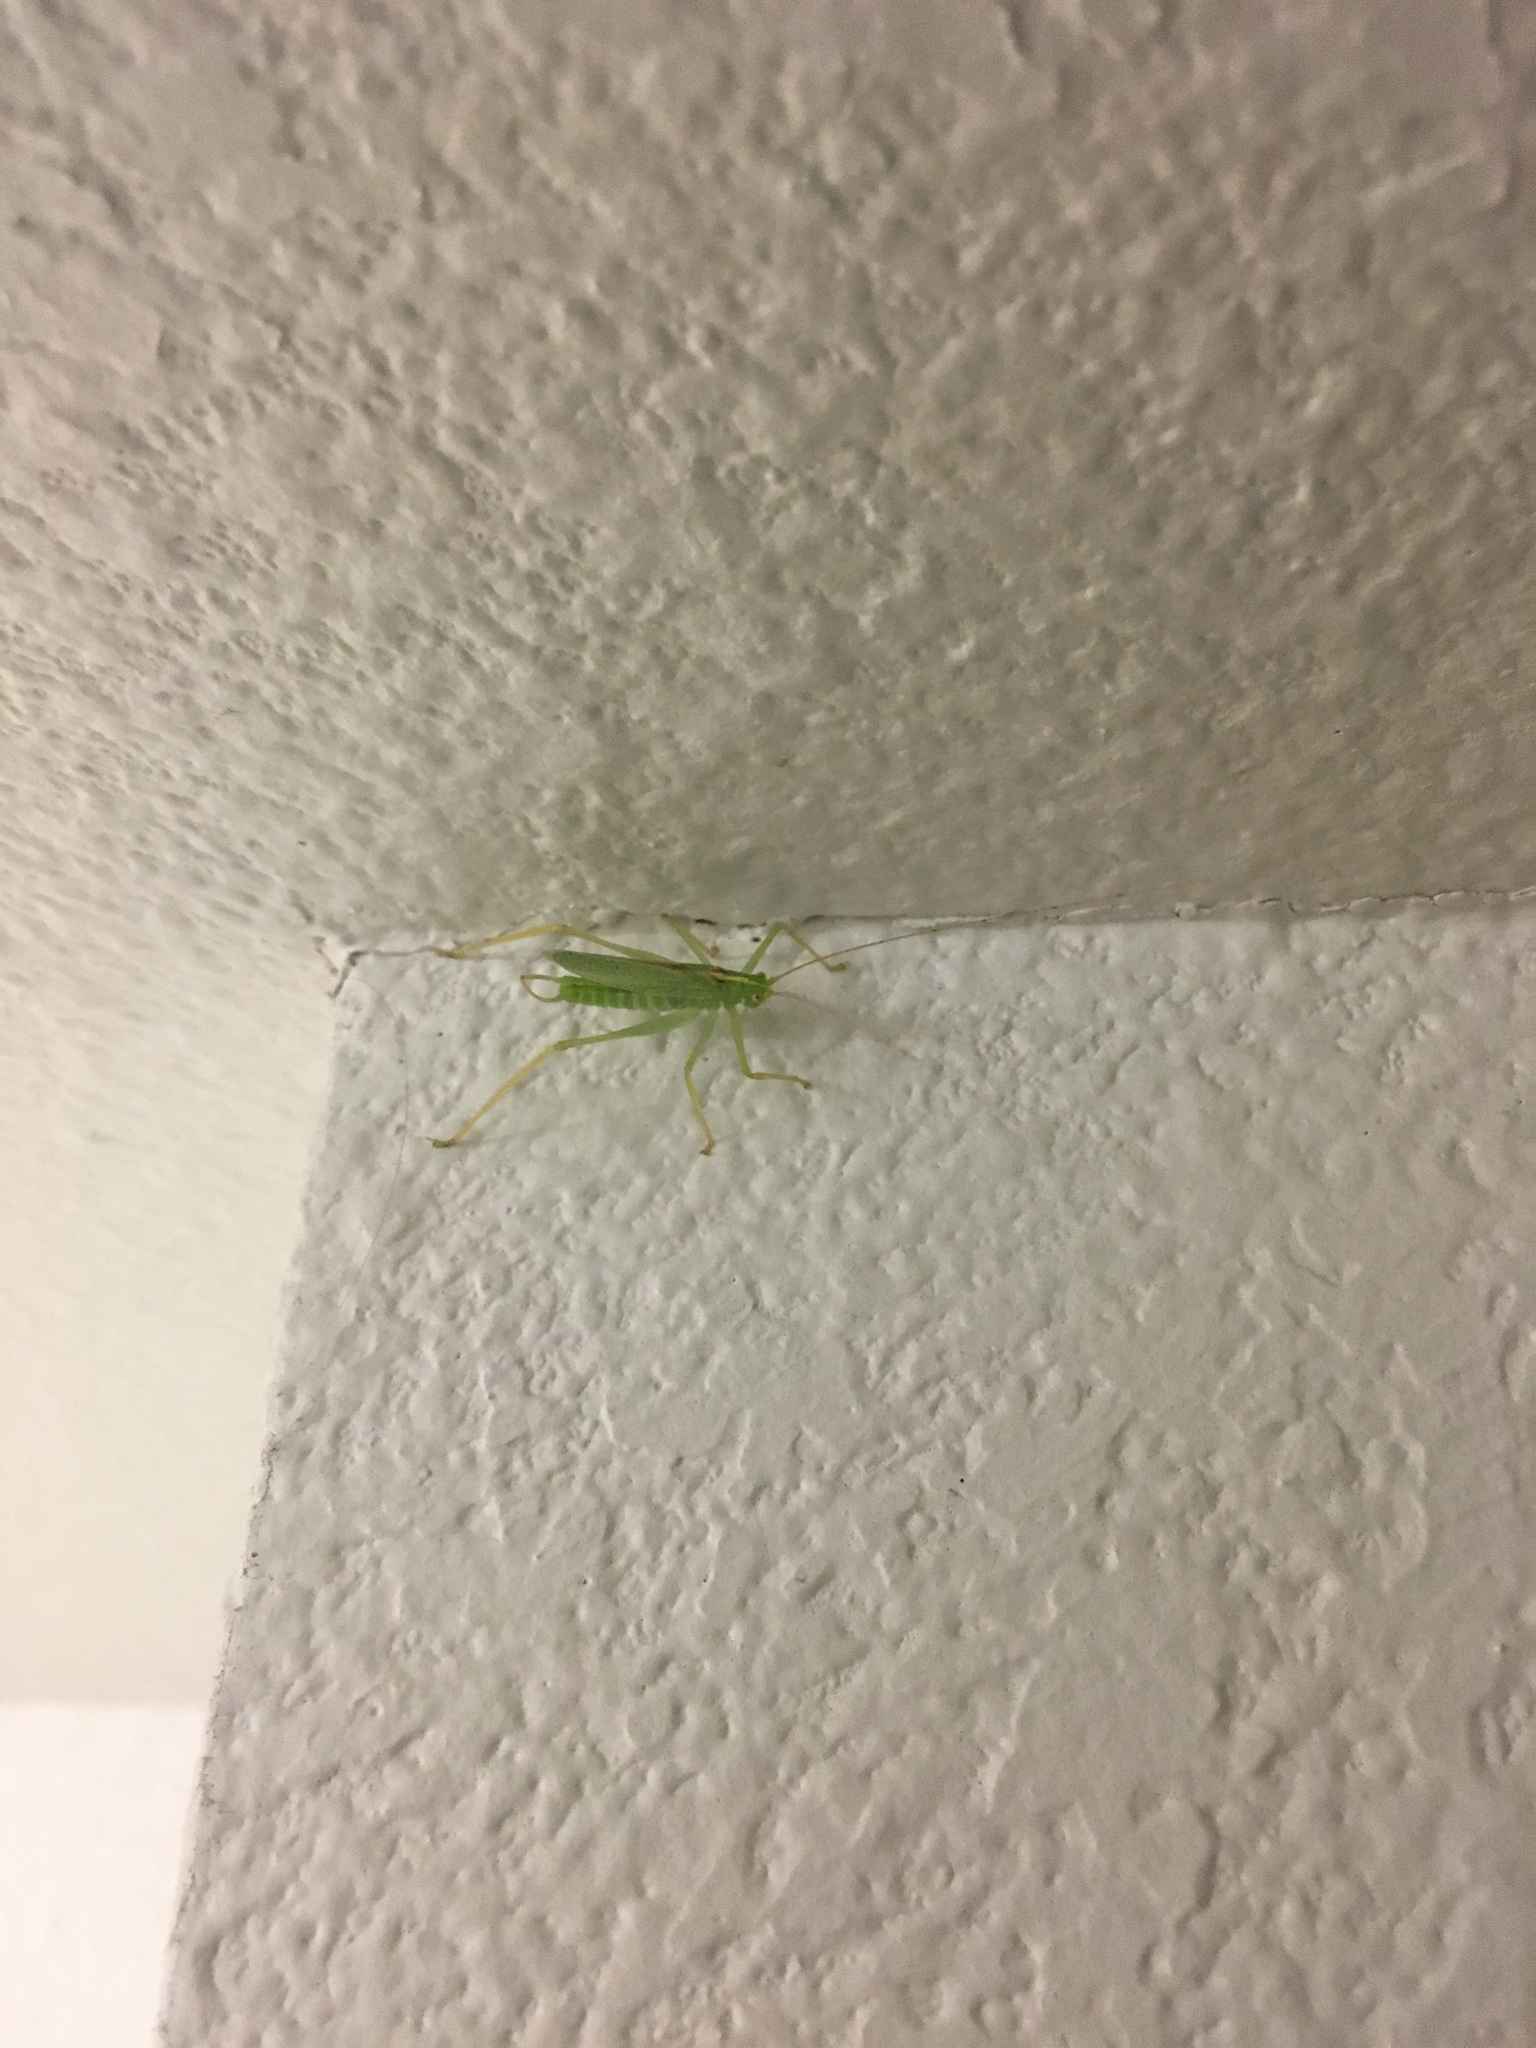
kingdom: Animalia
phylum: Arthropoda
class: Insecta
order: Orthoptera
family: Tettigoniidae
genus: Meconema
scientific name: Meconema thalassinum
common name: Oak bush-cricket
